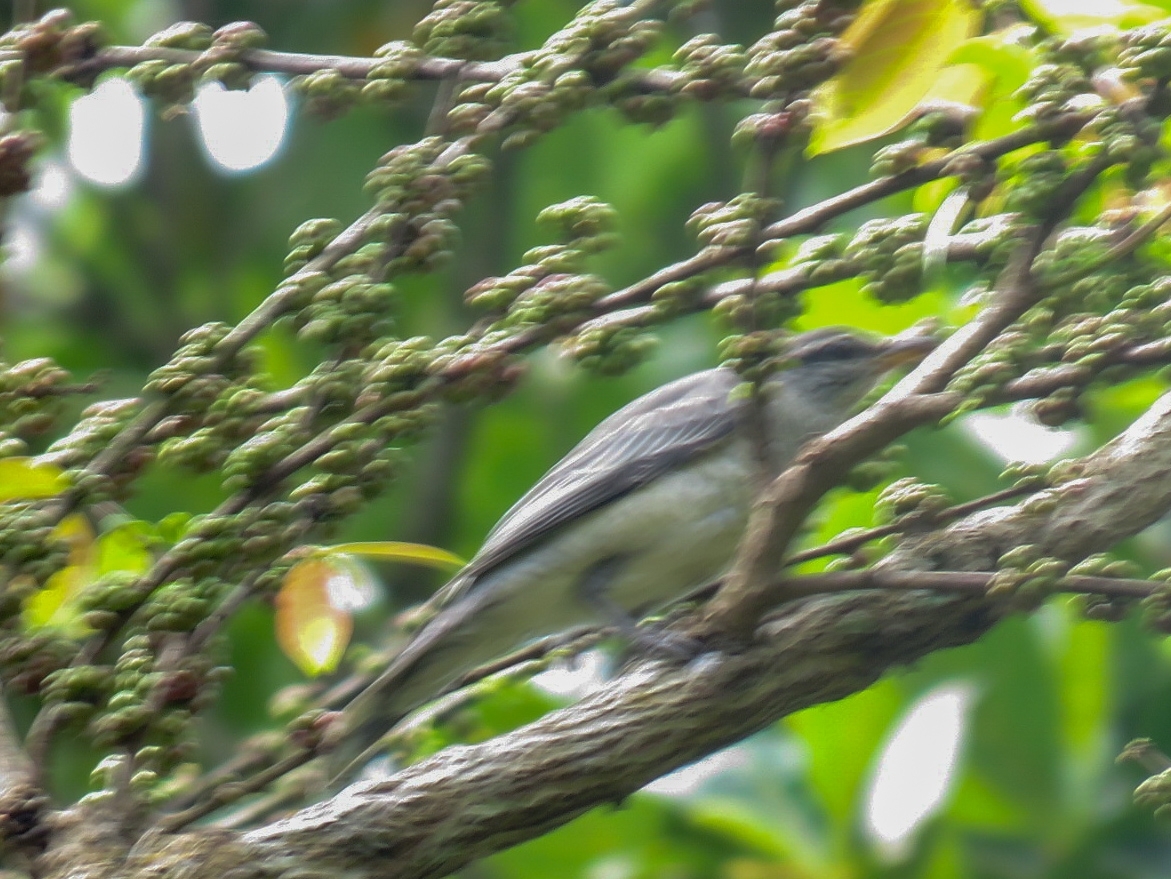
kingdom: Animalia
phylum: Chordata
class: Aves
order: Passeriformes
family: Campephagidae
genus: Coracina
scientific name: Coracina melanoptera
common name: Black-headed cuckooshrike
